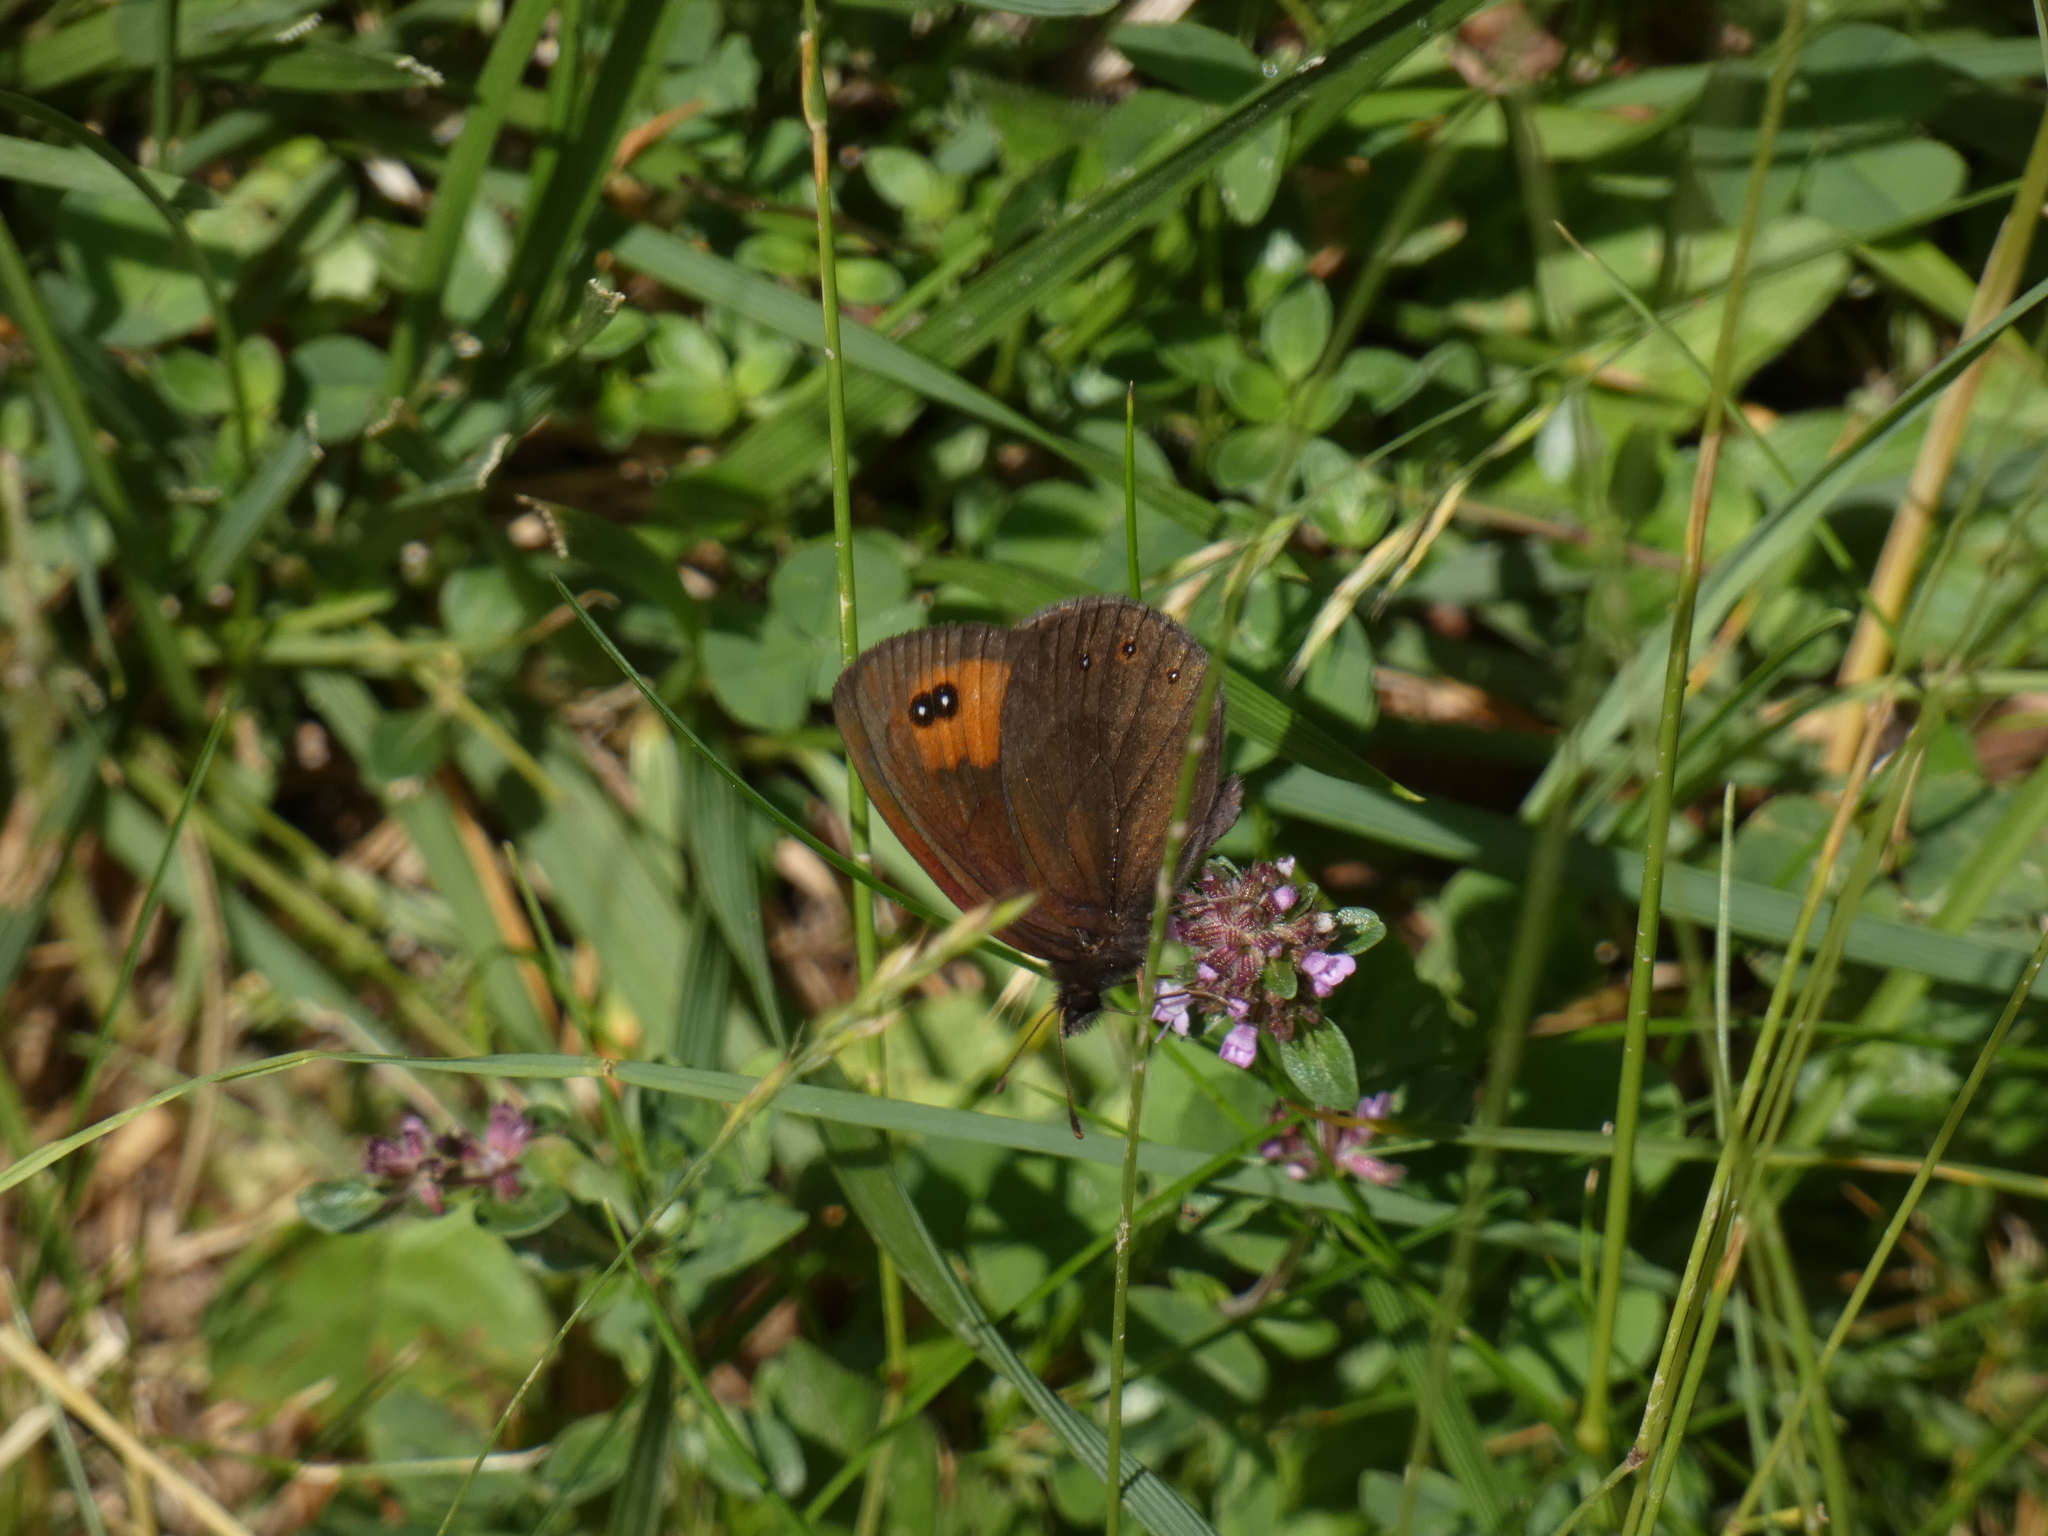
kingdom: Animalia
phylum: Arthropoda
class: Insecta
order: Lepidoptera
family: Nymphalidae
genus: Erebia
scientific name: Erebia meolans
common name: Piedmont ringlet
